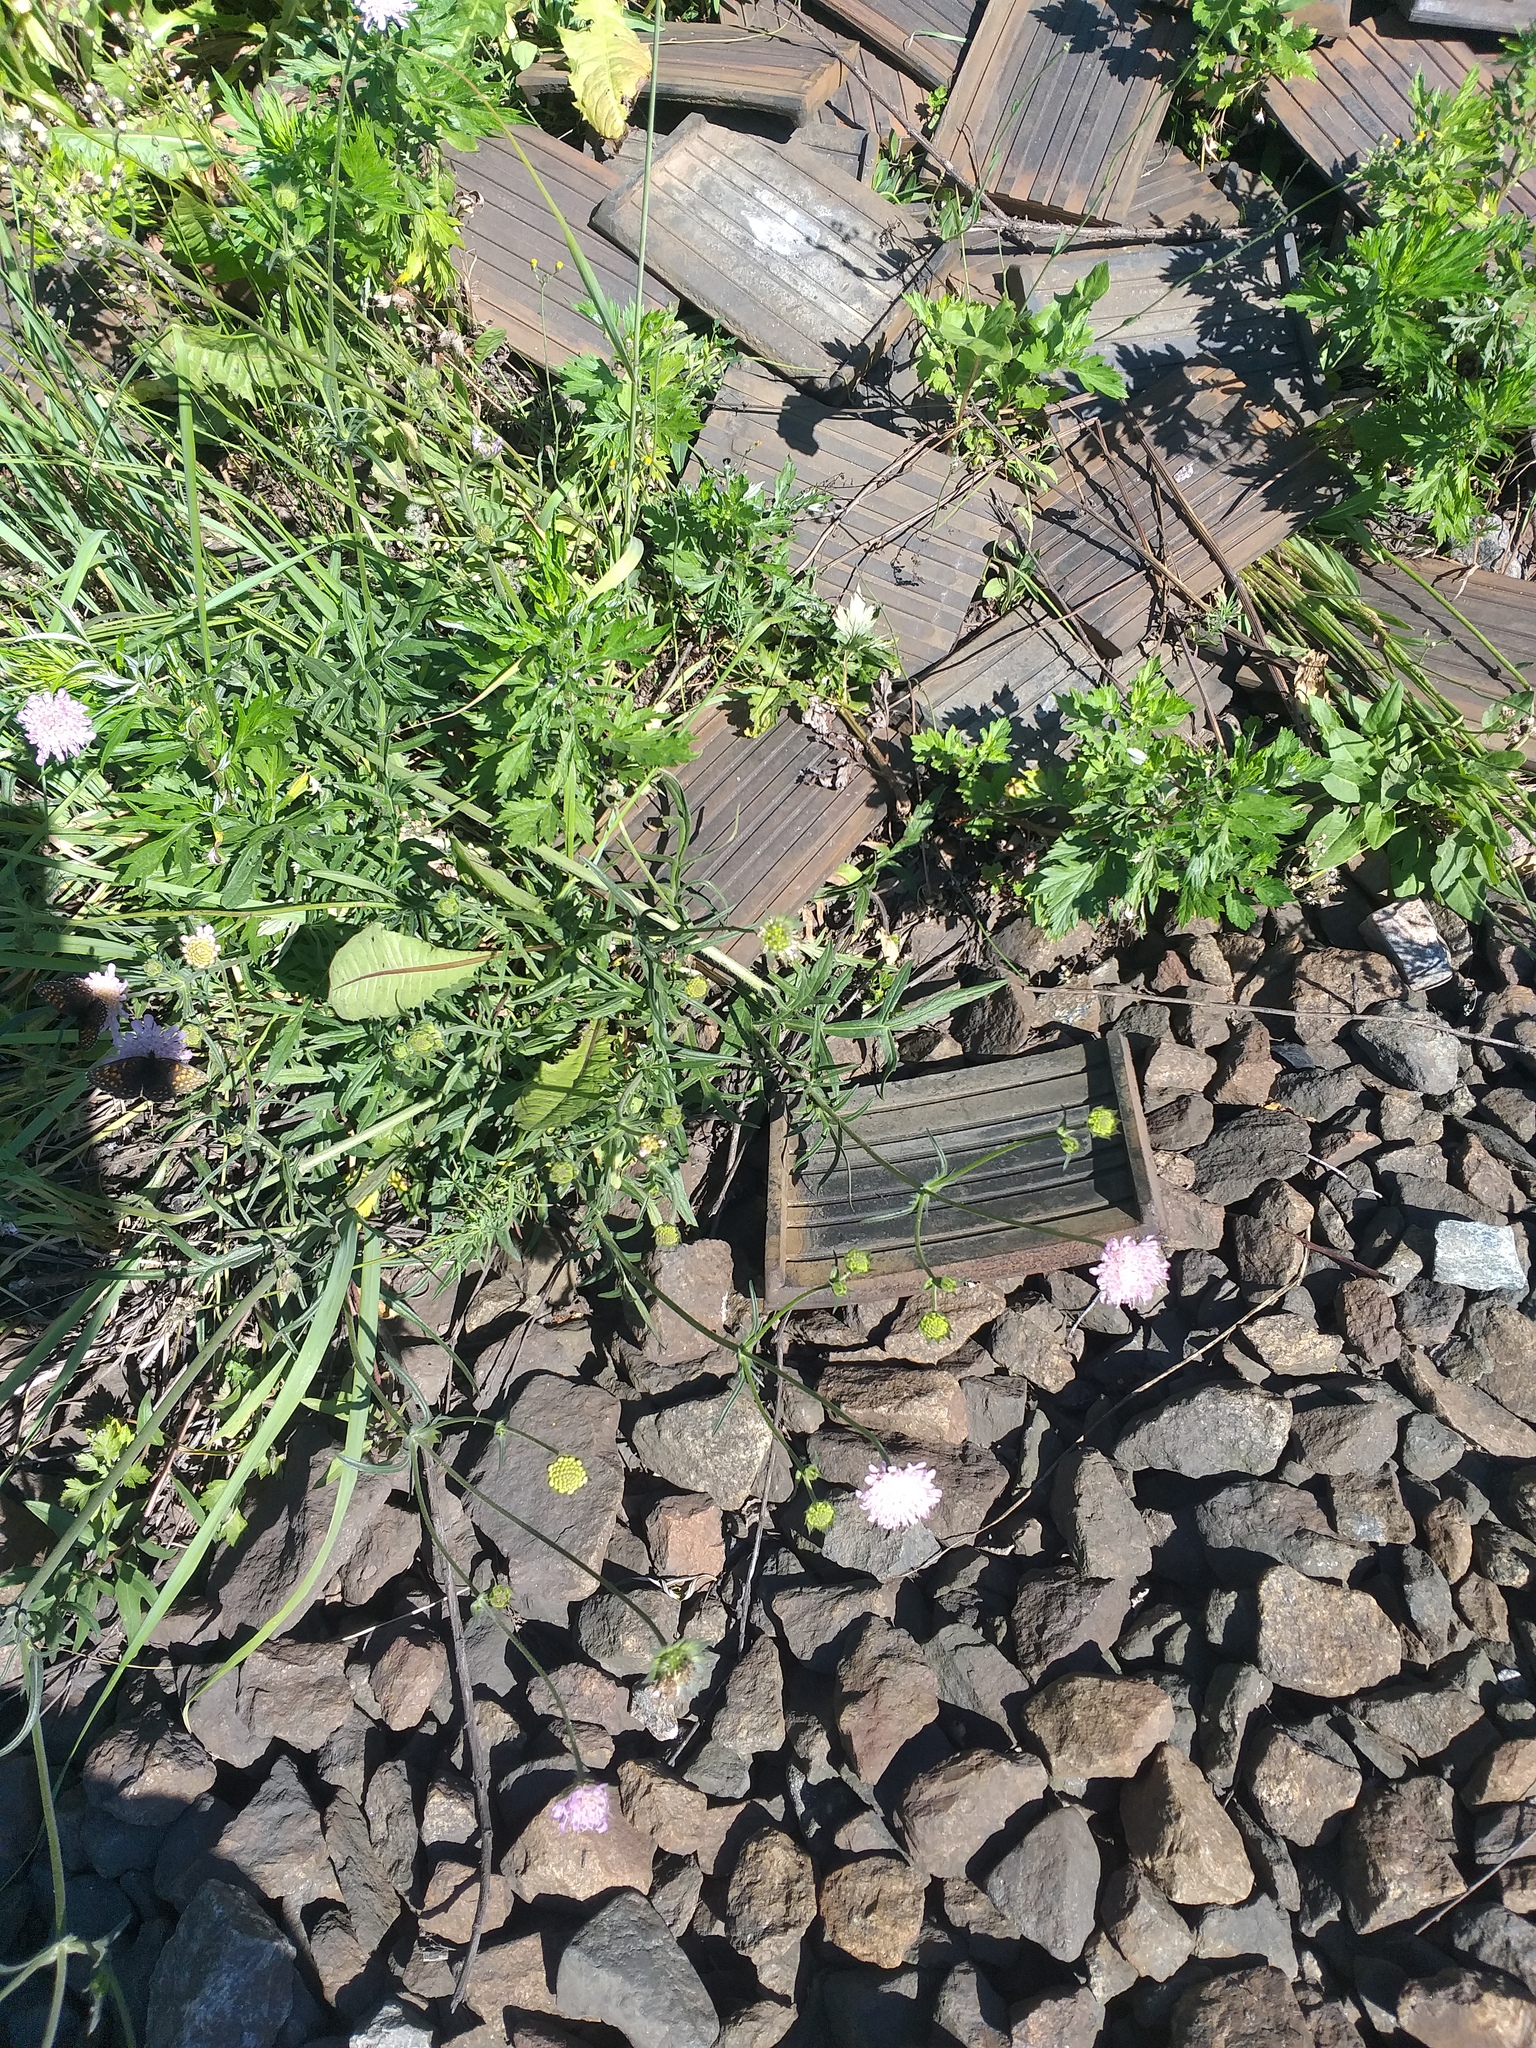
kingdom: Plantae
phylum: Tracheophyta
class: Magnoliopsida
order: Dipsacales
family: Caprifoliaceae
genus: Knautia
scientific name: Knautia arvensis
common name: Field scabiosa
